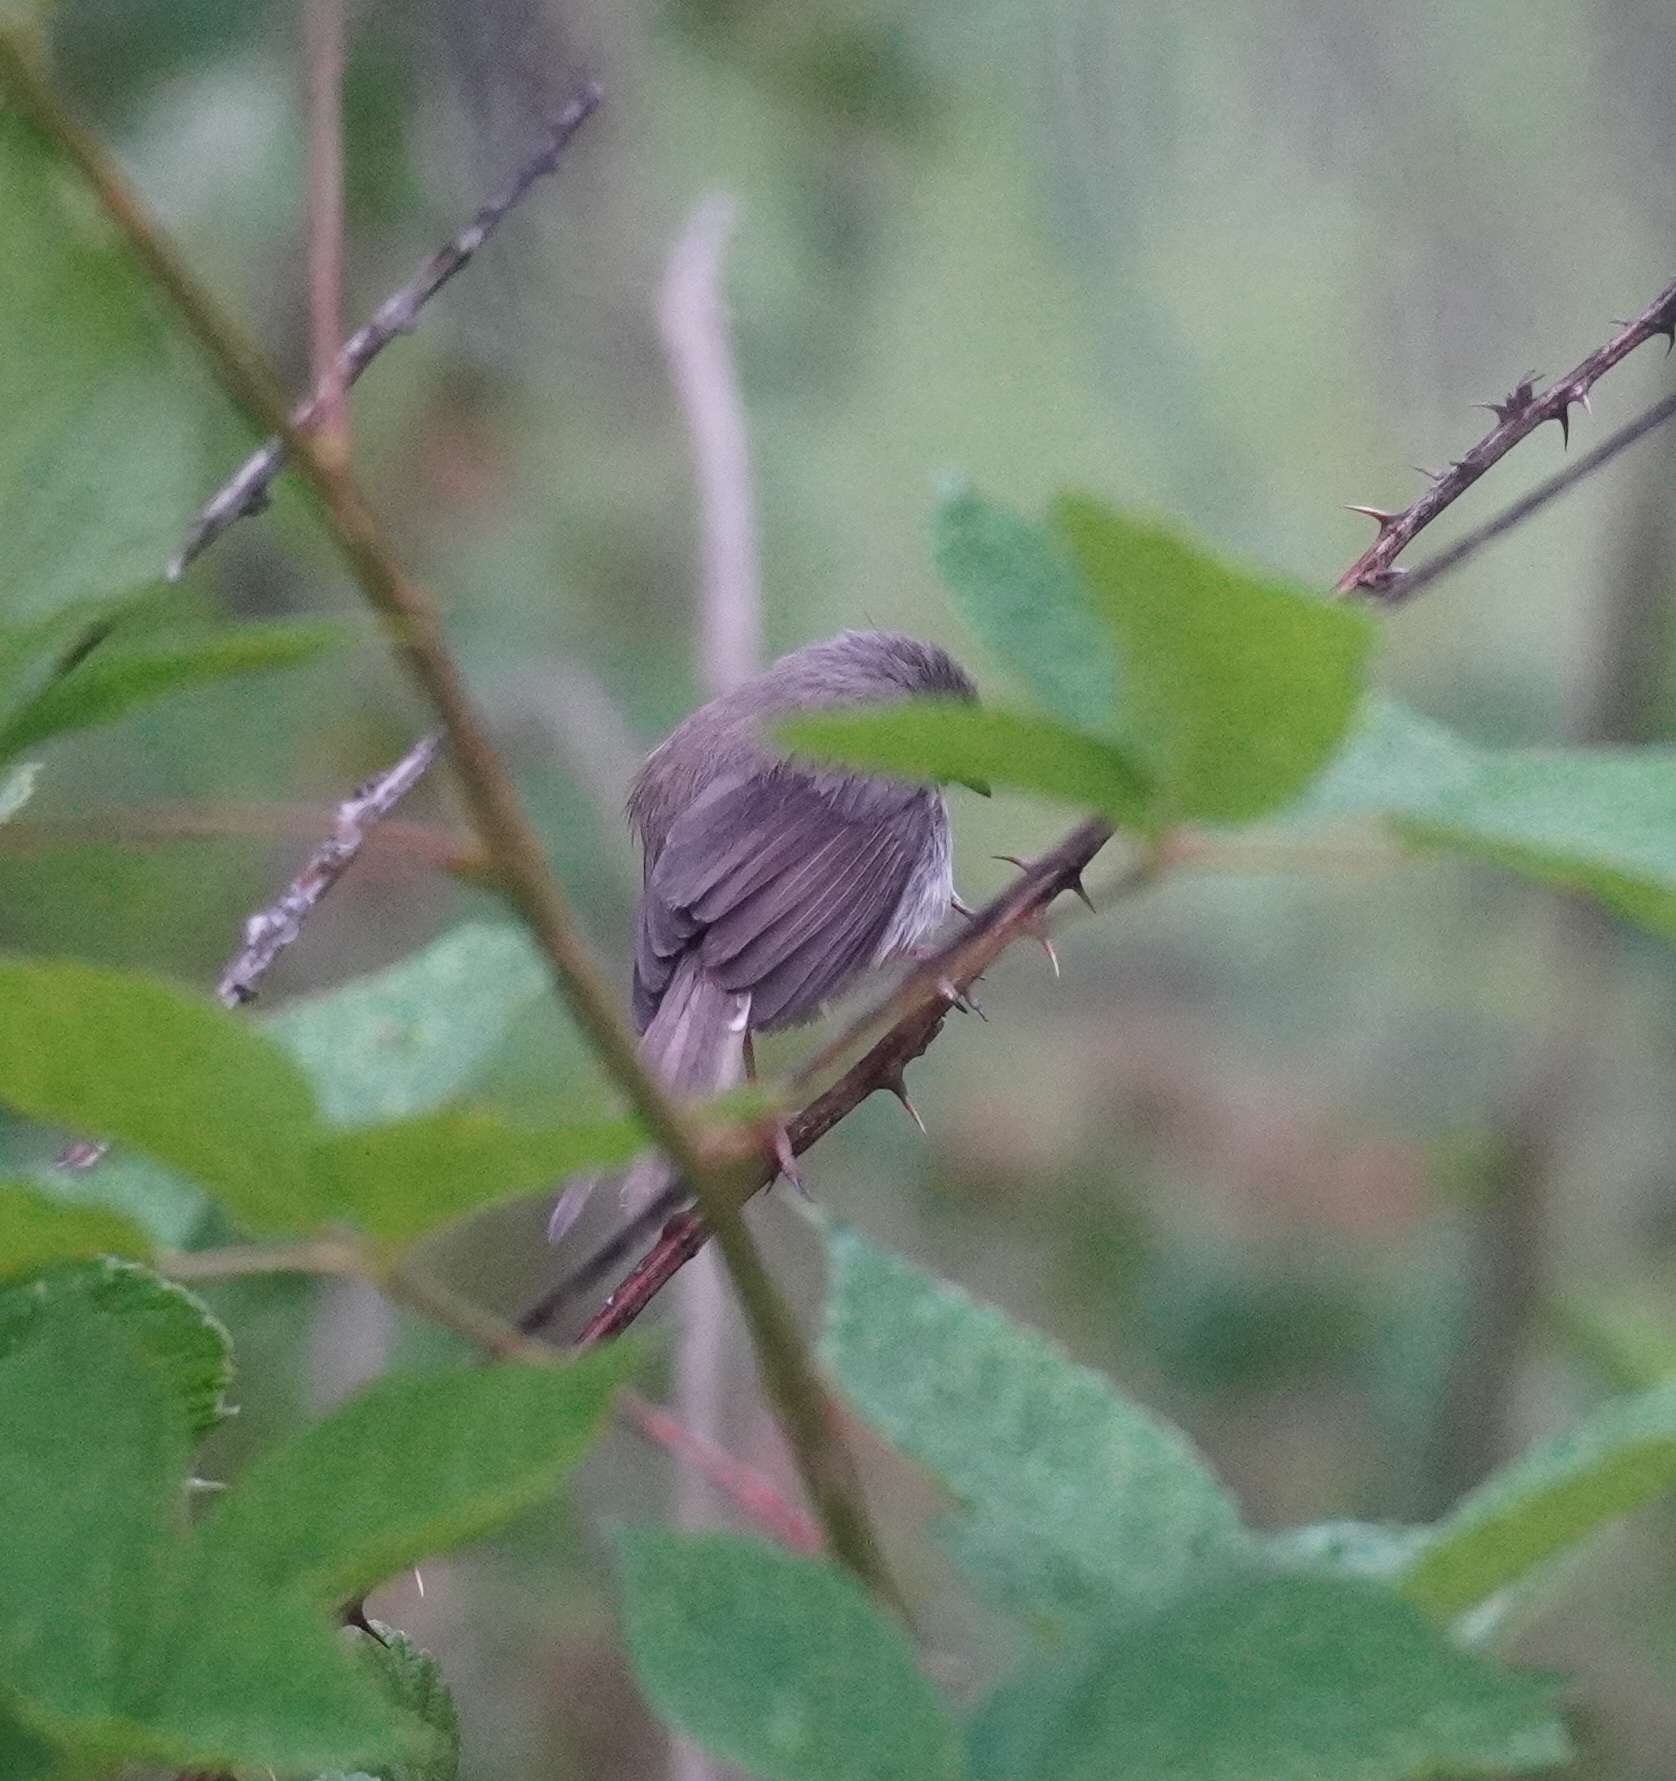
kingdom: Animalia
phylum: Chordata
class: Aves
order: Passeriformes
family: Muscicapidae
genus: Muscicapa
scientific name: Muscicapa adusta
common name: African dusky flycatcher
